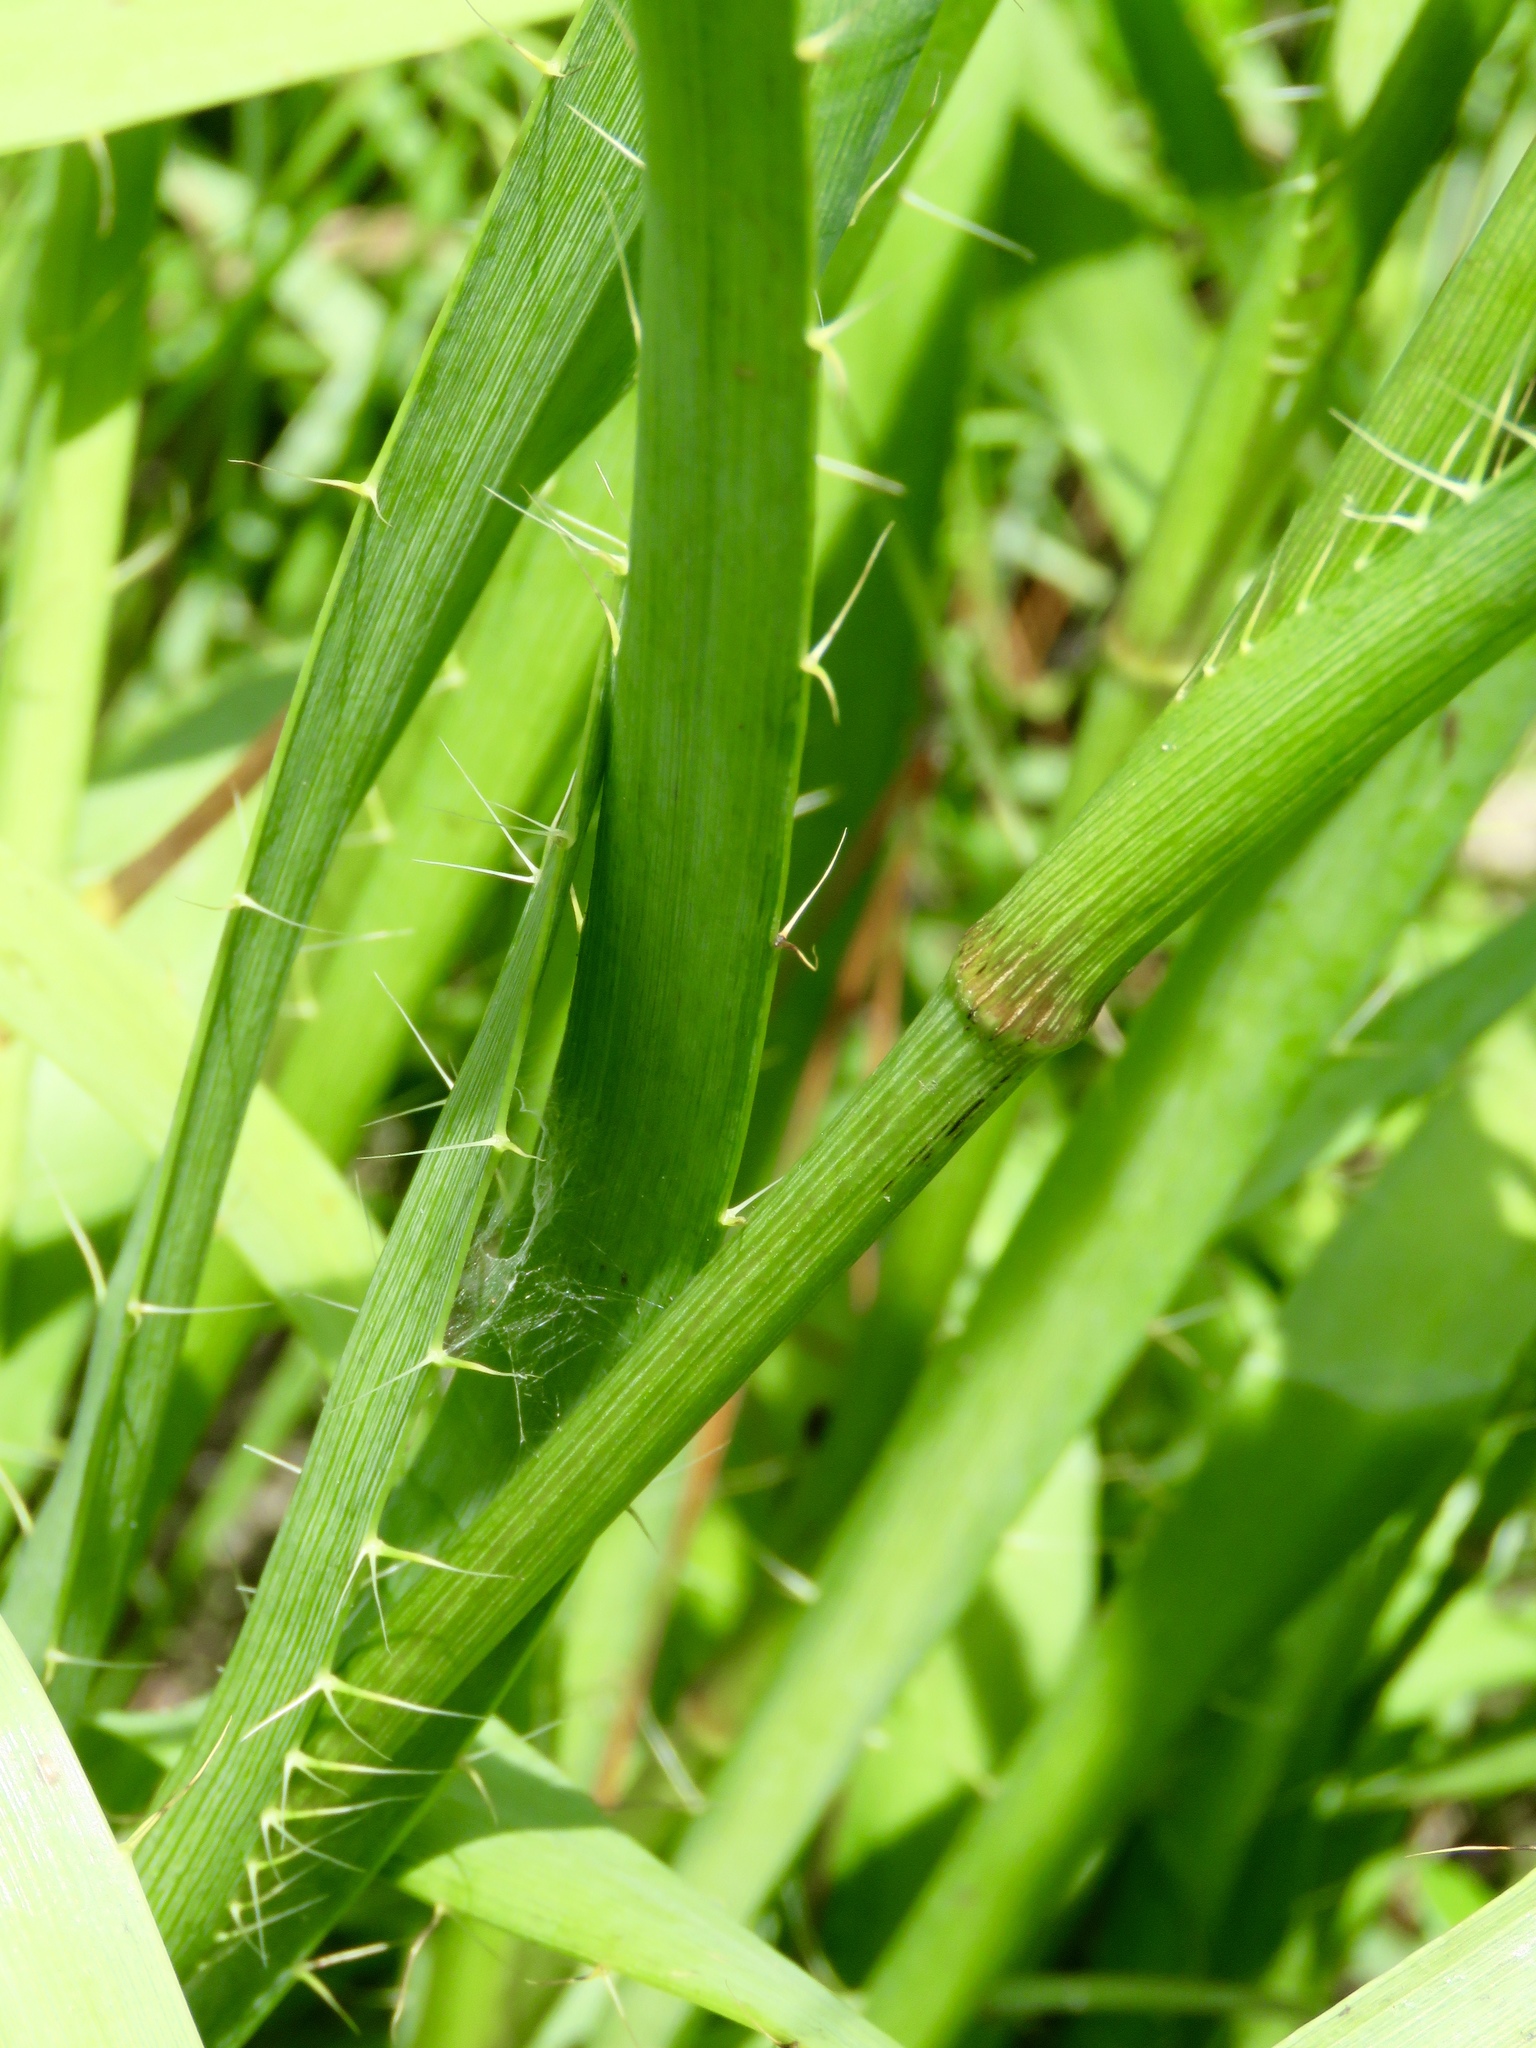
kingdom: Plantae
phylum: Tracheophyta
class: Magnoliopsida
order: Apiales
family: Apiaceae
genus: Eryngium
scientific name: Eryngium yuccifolium
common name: Button eryngo
